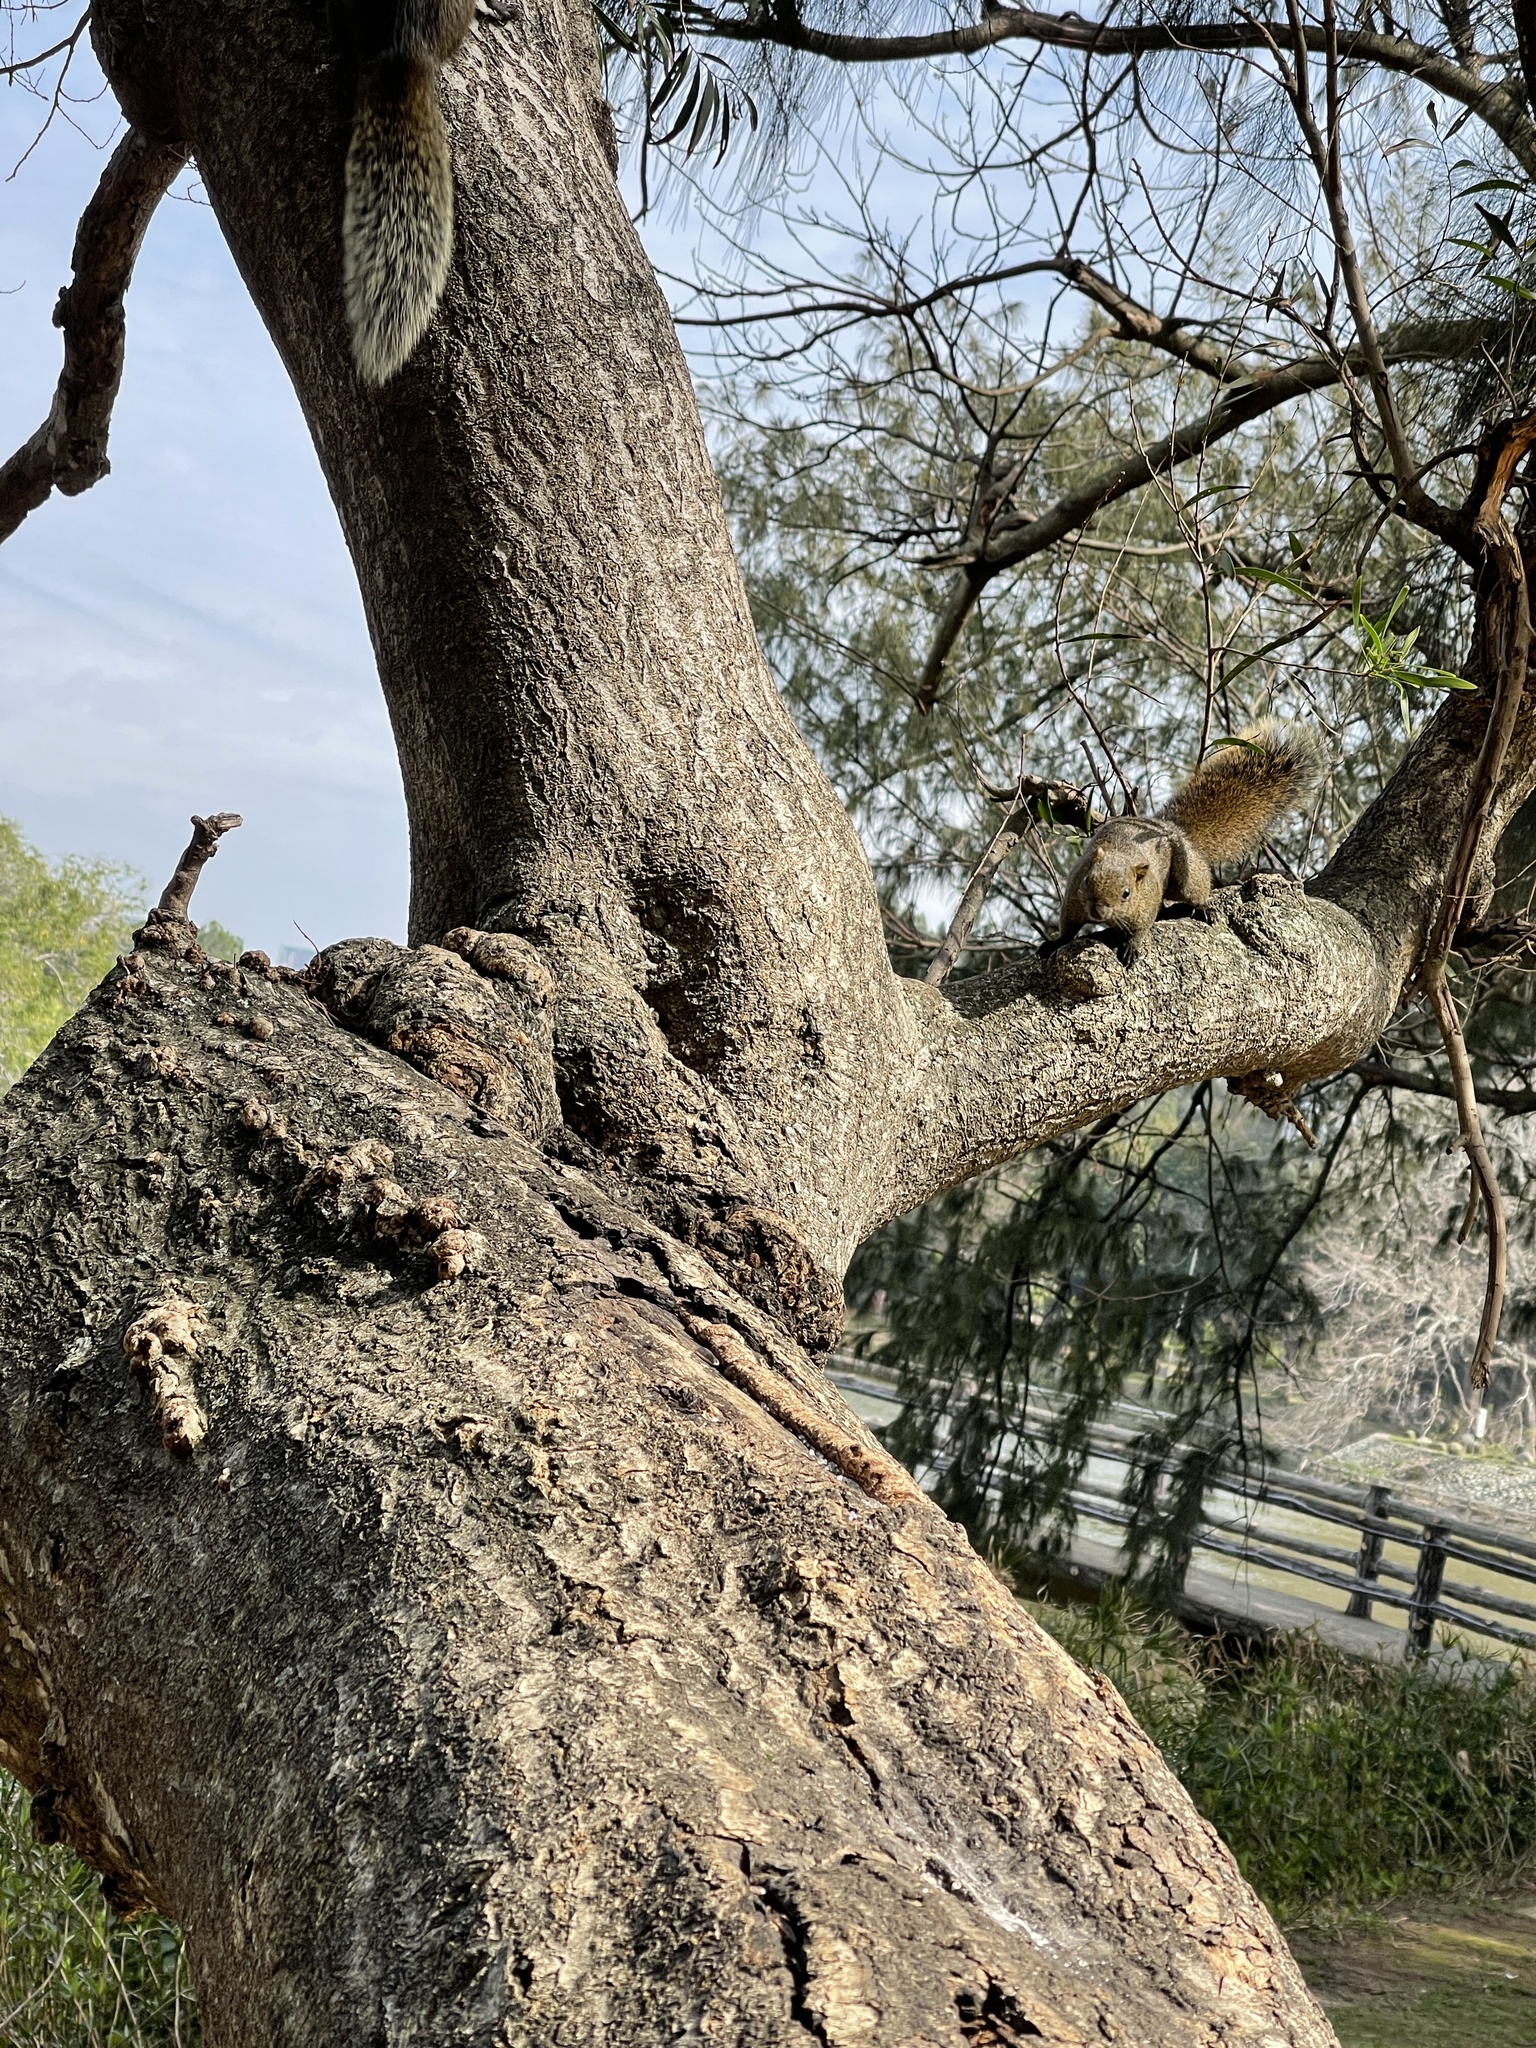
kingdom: Animalia
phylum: Chordata
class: Mammalia
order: Rodentia
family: Sciuridae
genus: Callosciurus
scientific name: Callosciurus erythraeus
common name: Pallas's squirrel
